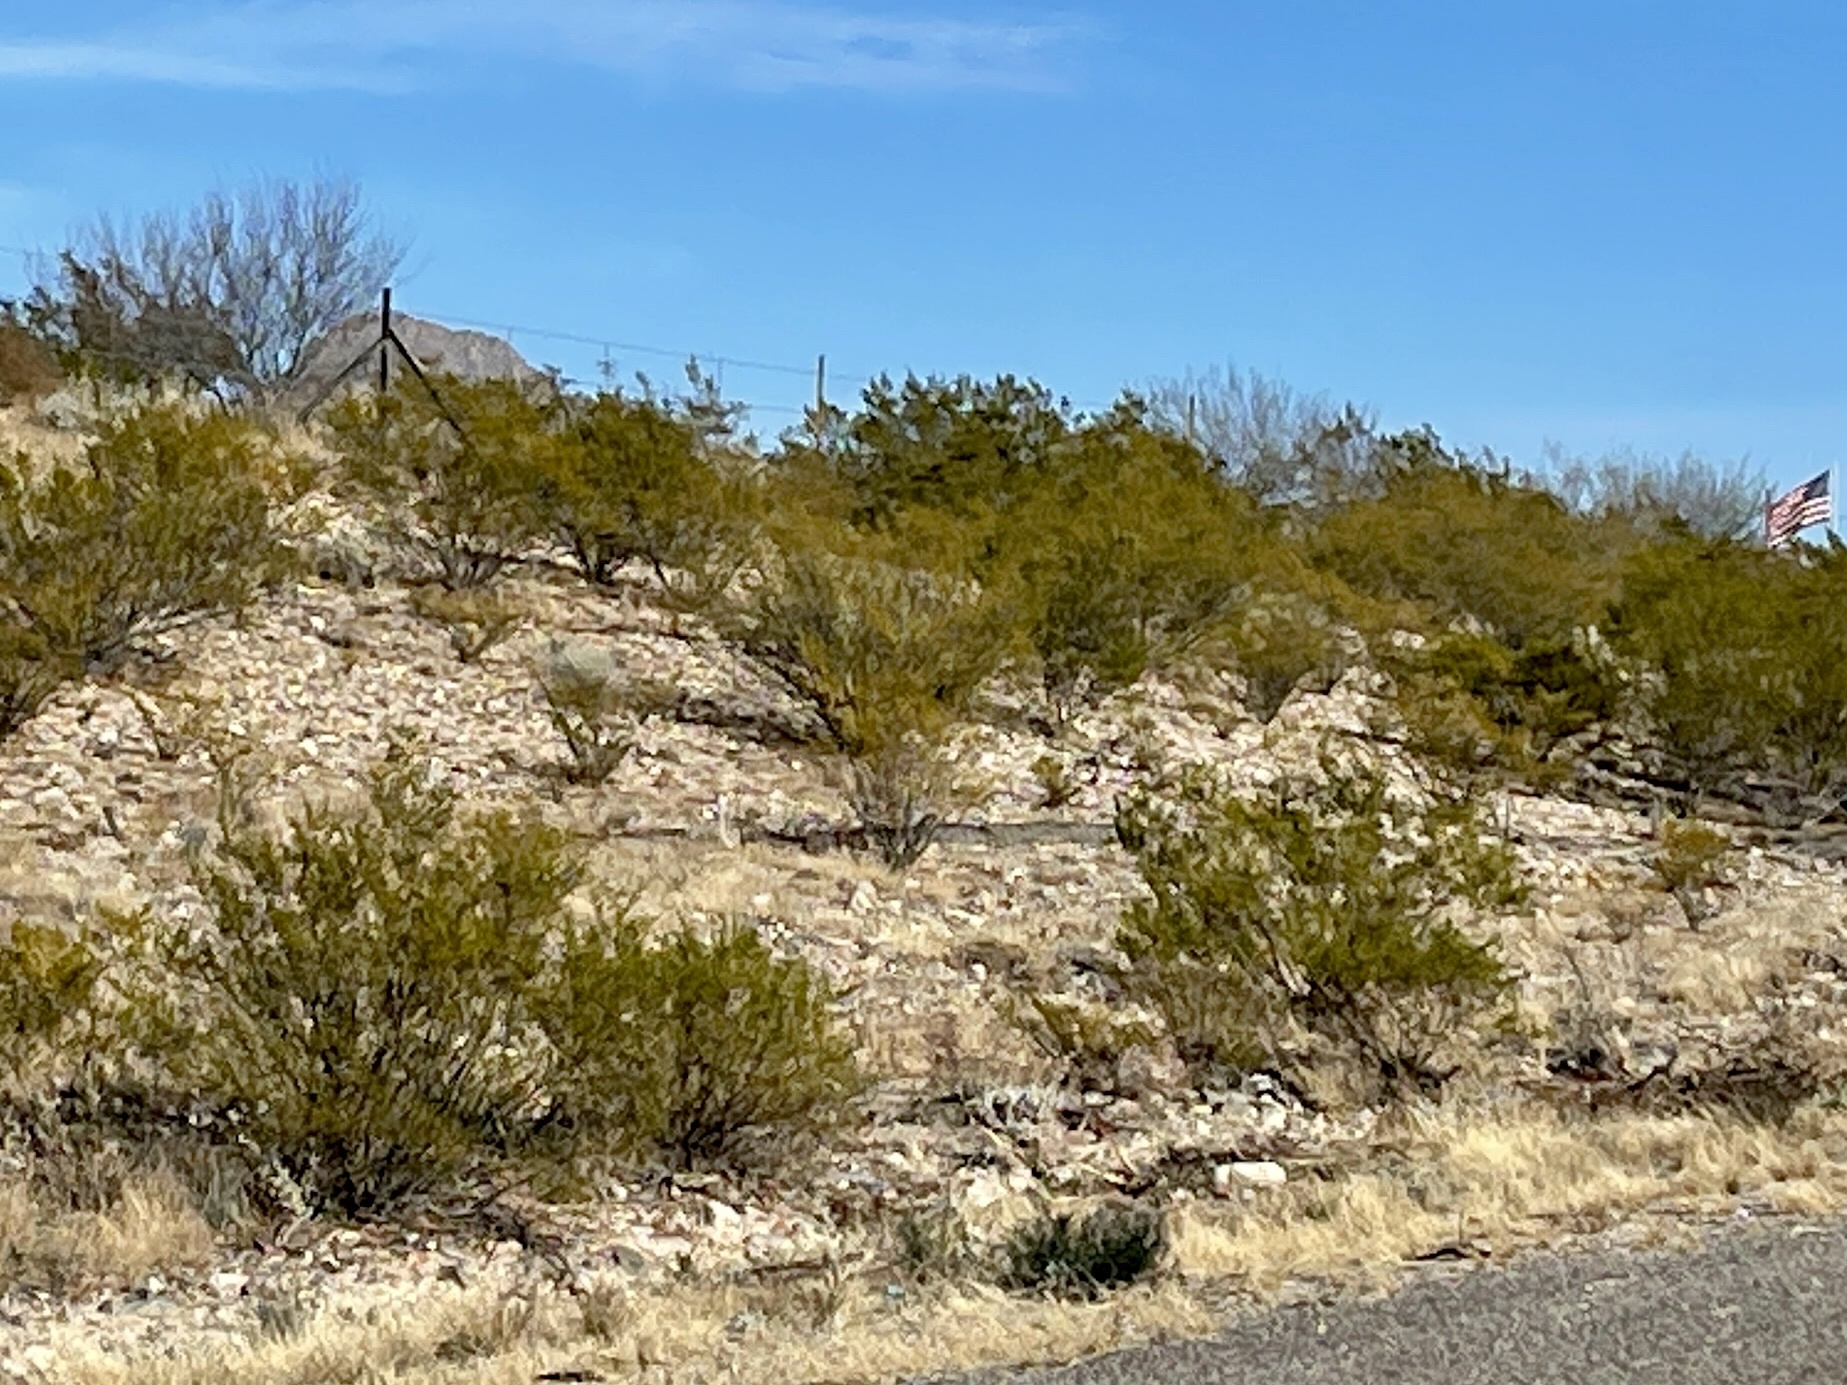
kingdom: Plantae
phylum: Tracheophyta
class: Magnoliopsida
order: Zygophyllales
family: Zygophyllaceae
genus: Larrea
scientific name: Larrea tridentata
